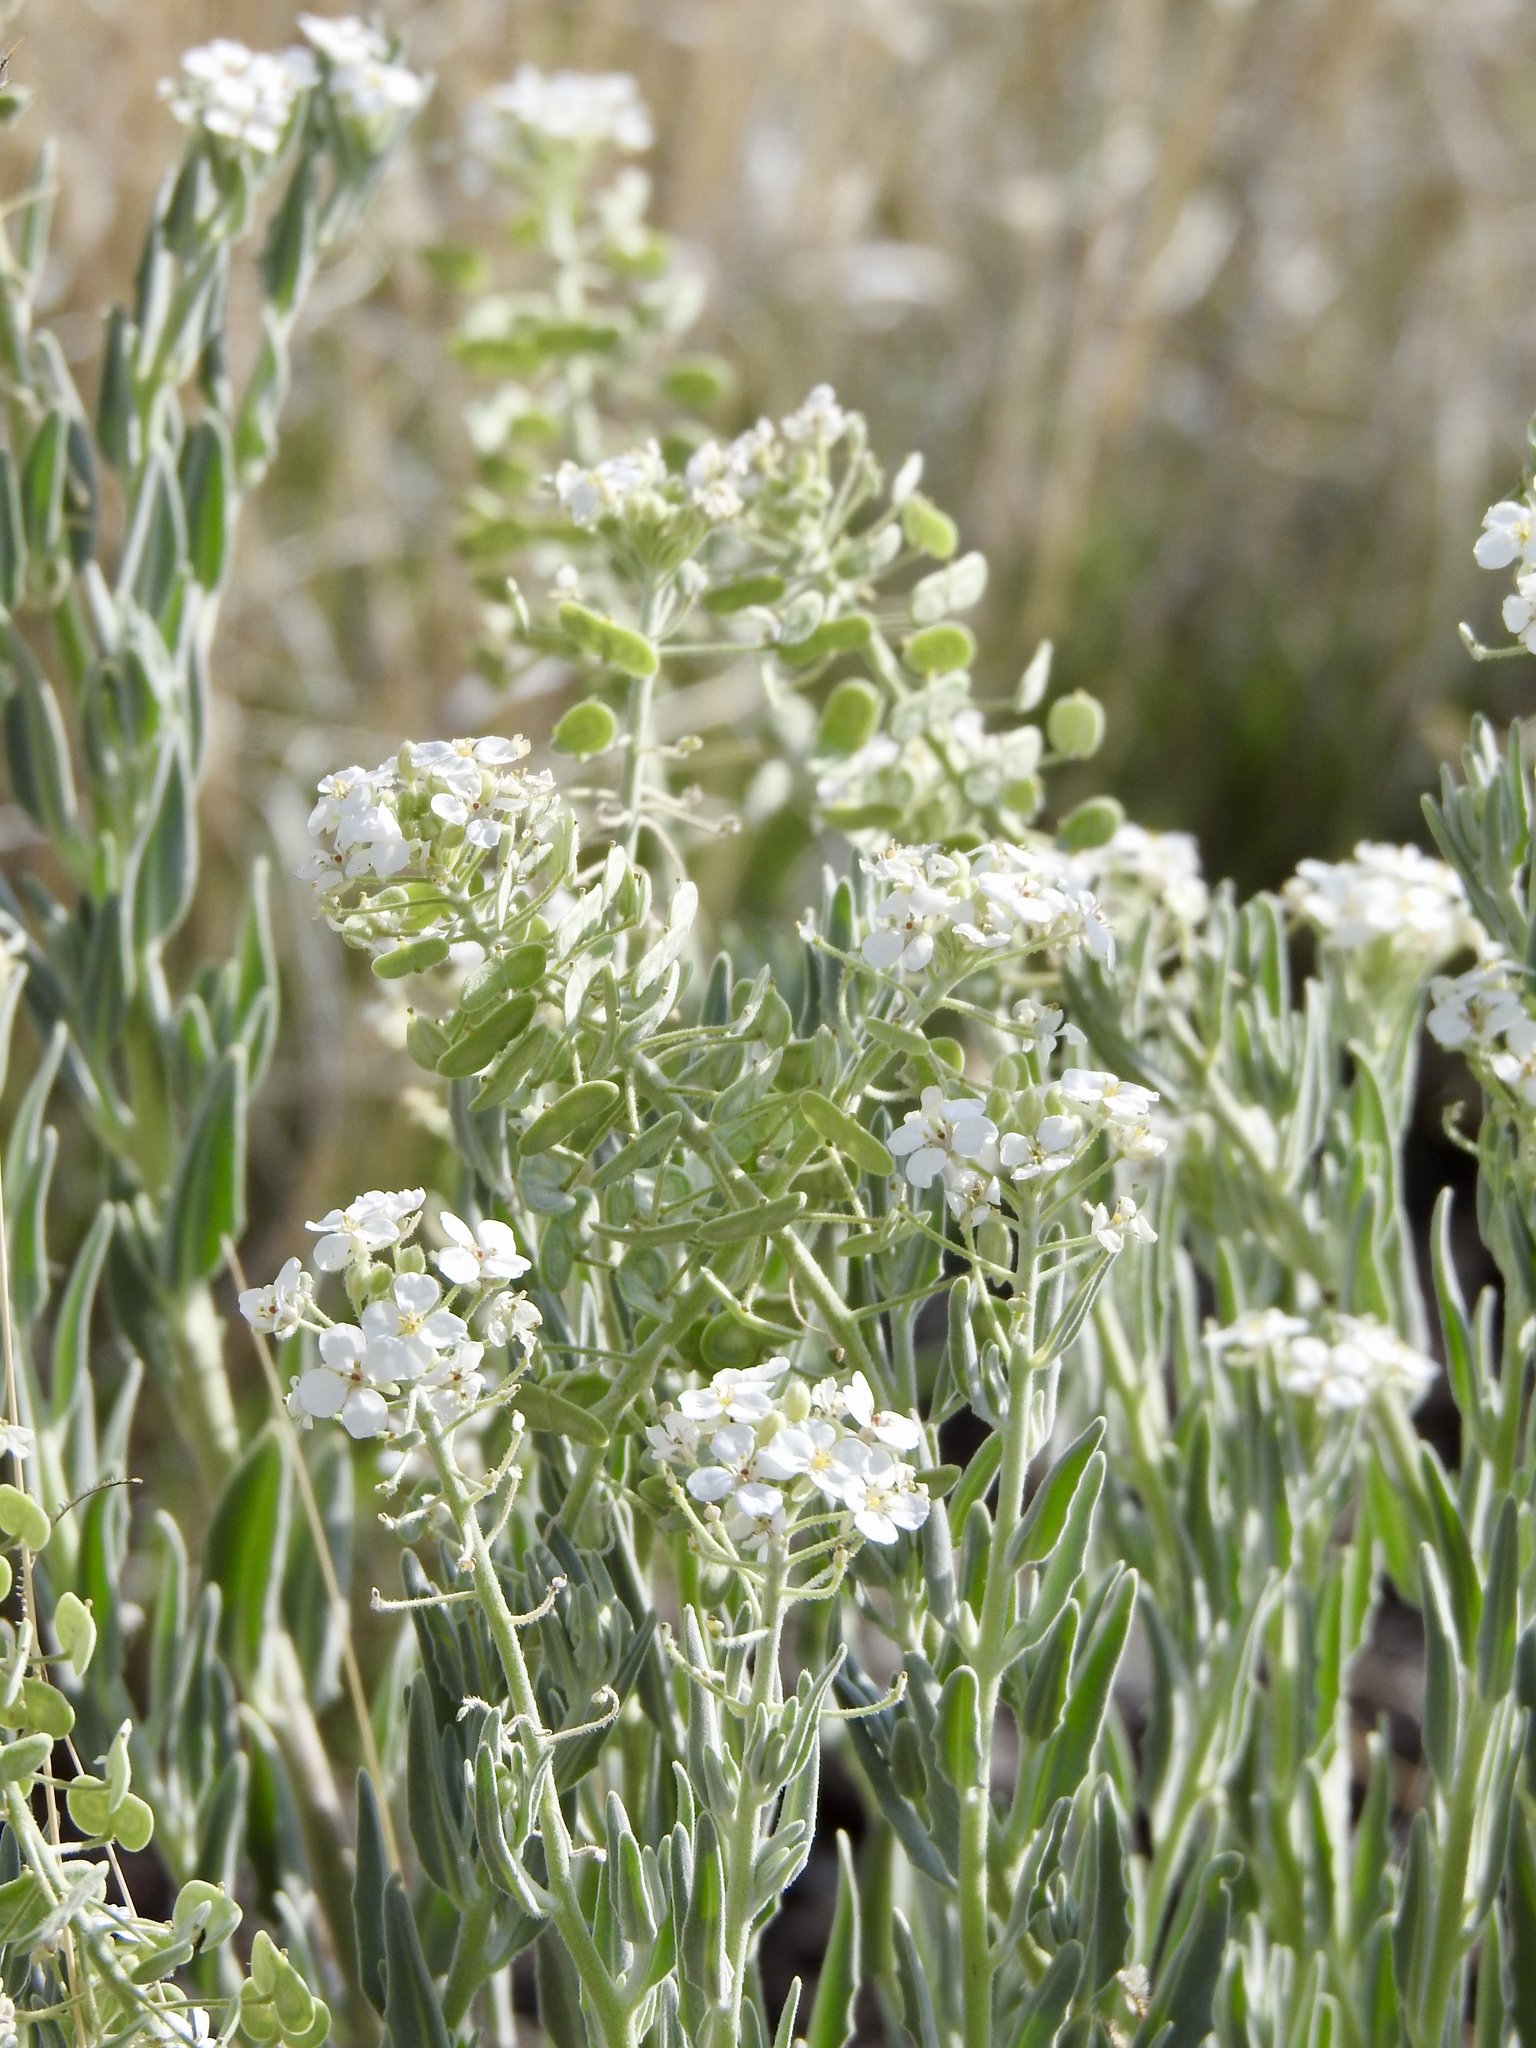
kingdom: Plantae
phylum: Tracheophyta
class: Magnoliopsida
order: Brassicales
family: Brassicaceae
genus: Dimorphocarpa
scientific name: Dimorphocarpa wislizenii
